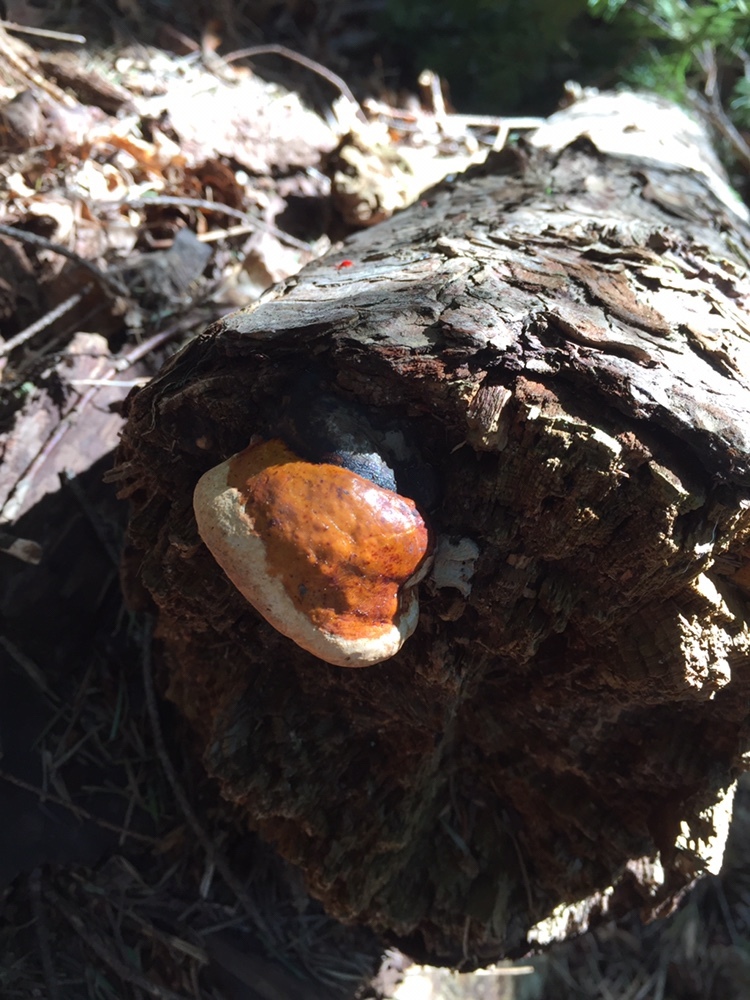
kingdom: Fungi
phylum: Basidiomycota
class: Agaricomycetes
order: Polyporales
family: Fomitopsidaceae
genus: Fomitopsis
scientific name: Fomitopsis mounceae
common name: Northern red belt
